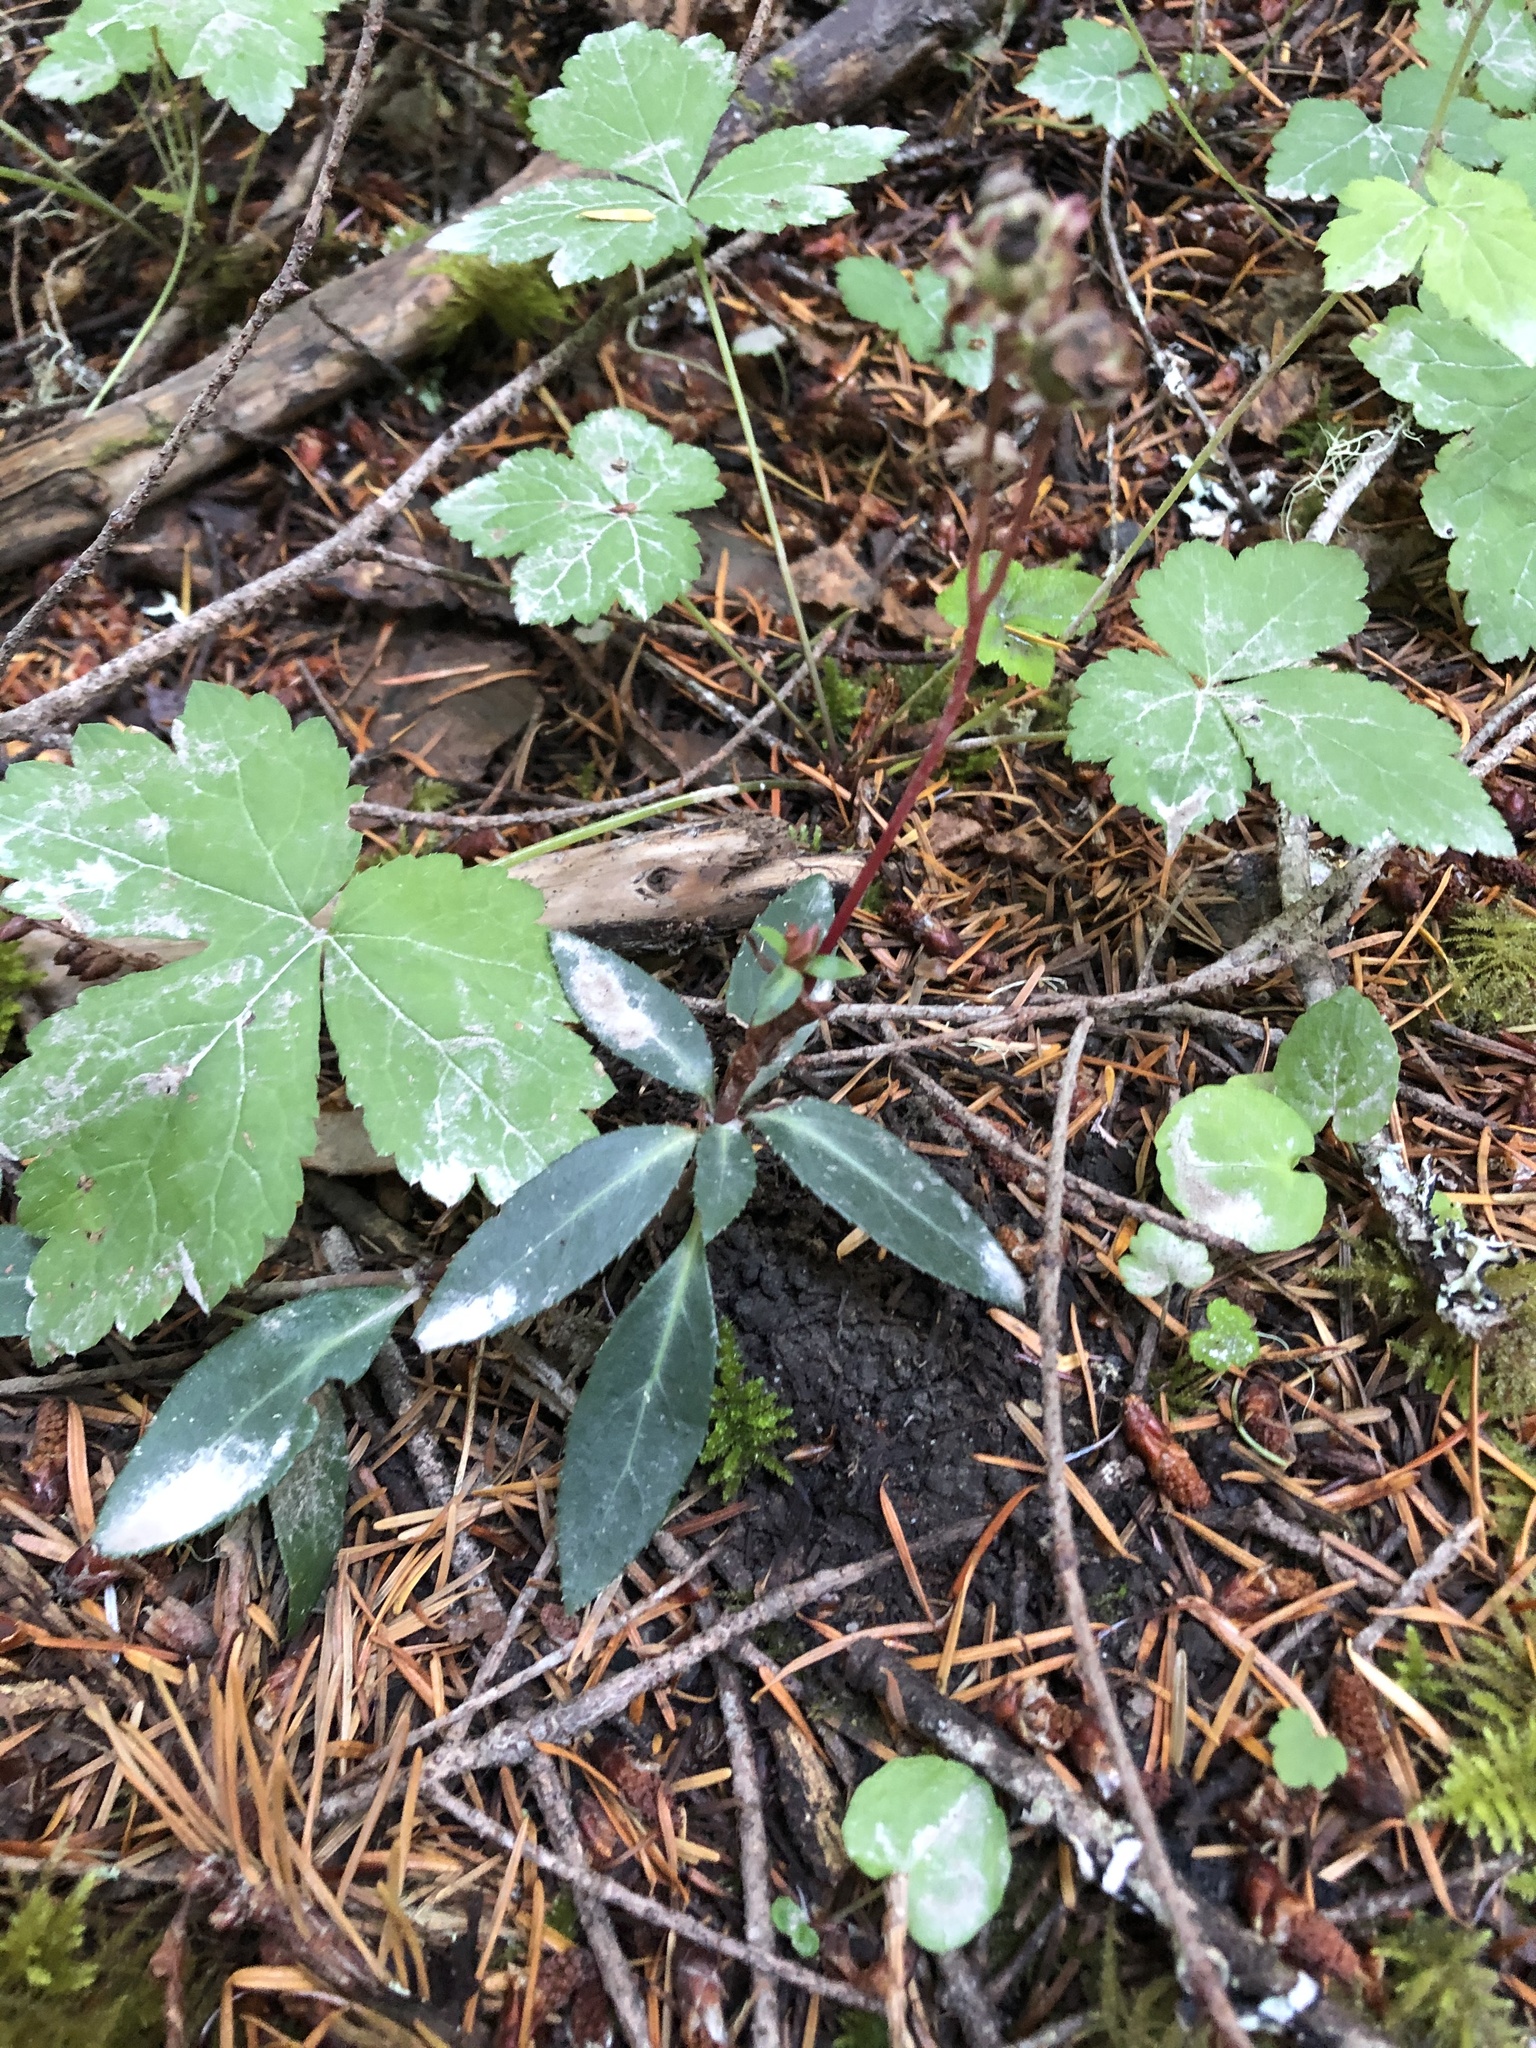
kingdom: Plantae
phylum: Tracheophyta
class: Magnoliopsida
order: Ericales
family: Ericaceae
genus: Chimaphila
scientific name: Chimaphila menziesii
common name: Menzies' pipsissewa
